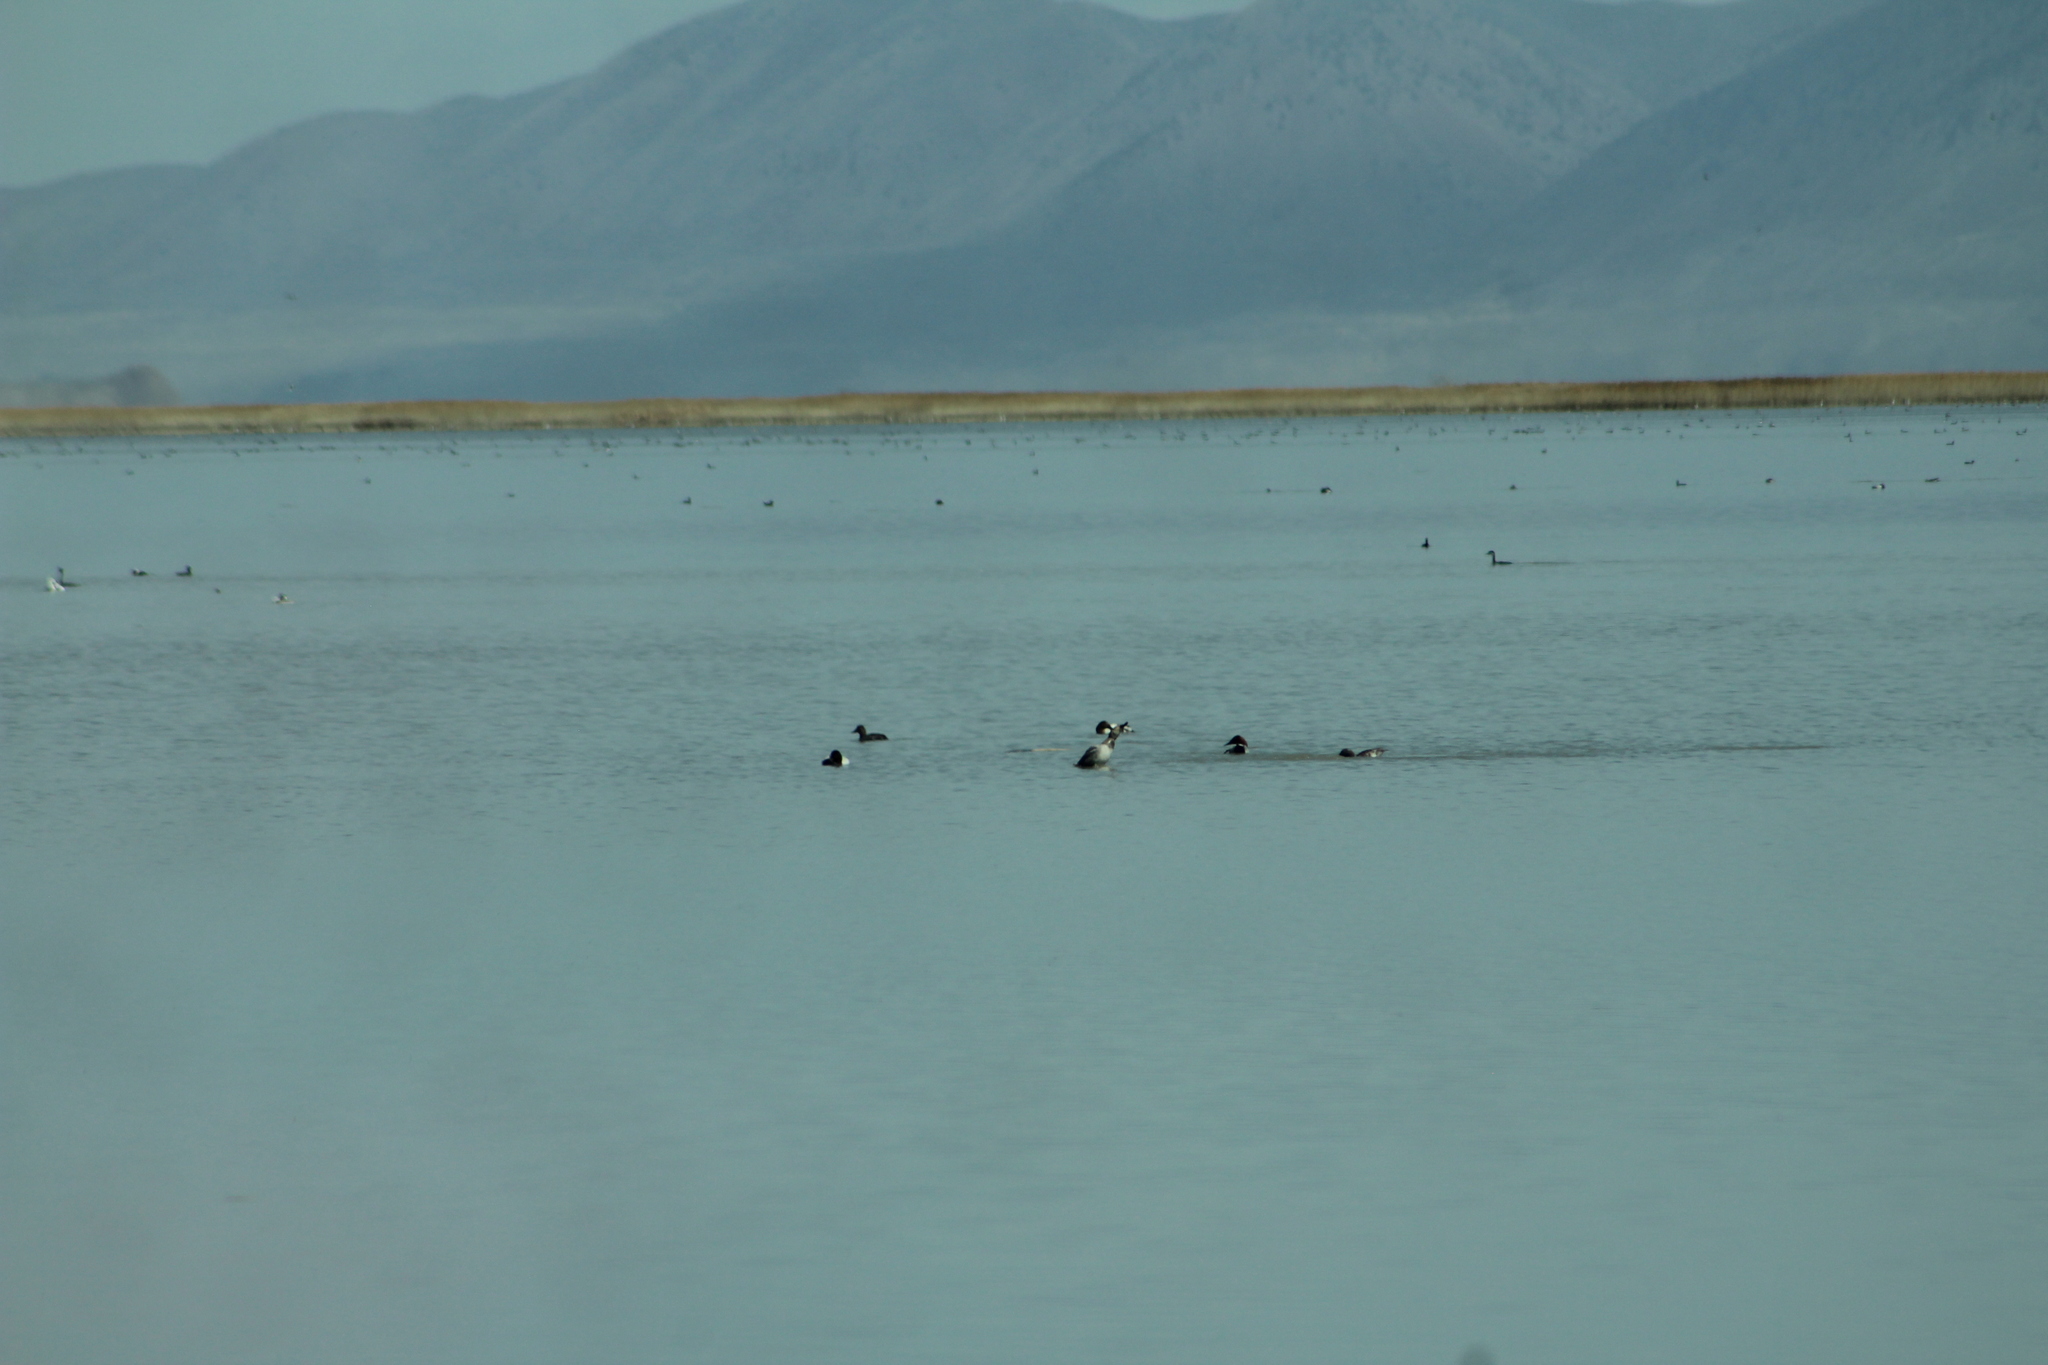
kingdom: Animalia
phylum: Chordata
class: Aves
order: Anseriformes
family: Anatidae
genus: Aythya
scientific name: Aythya valisineria
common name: Canvasback
